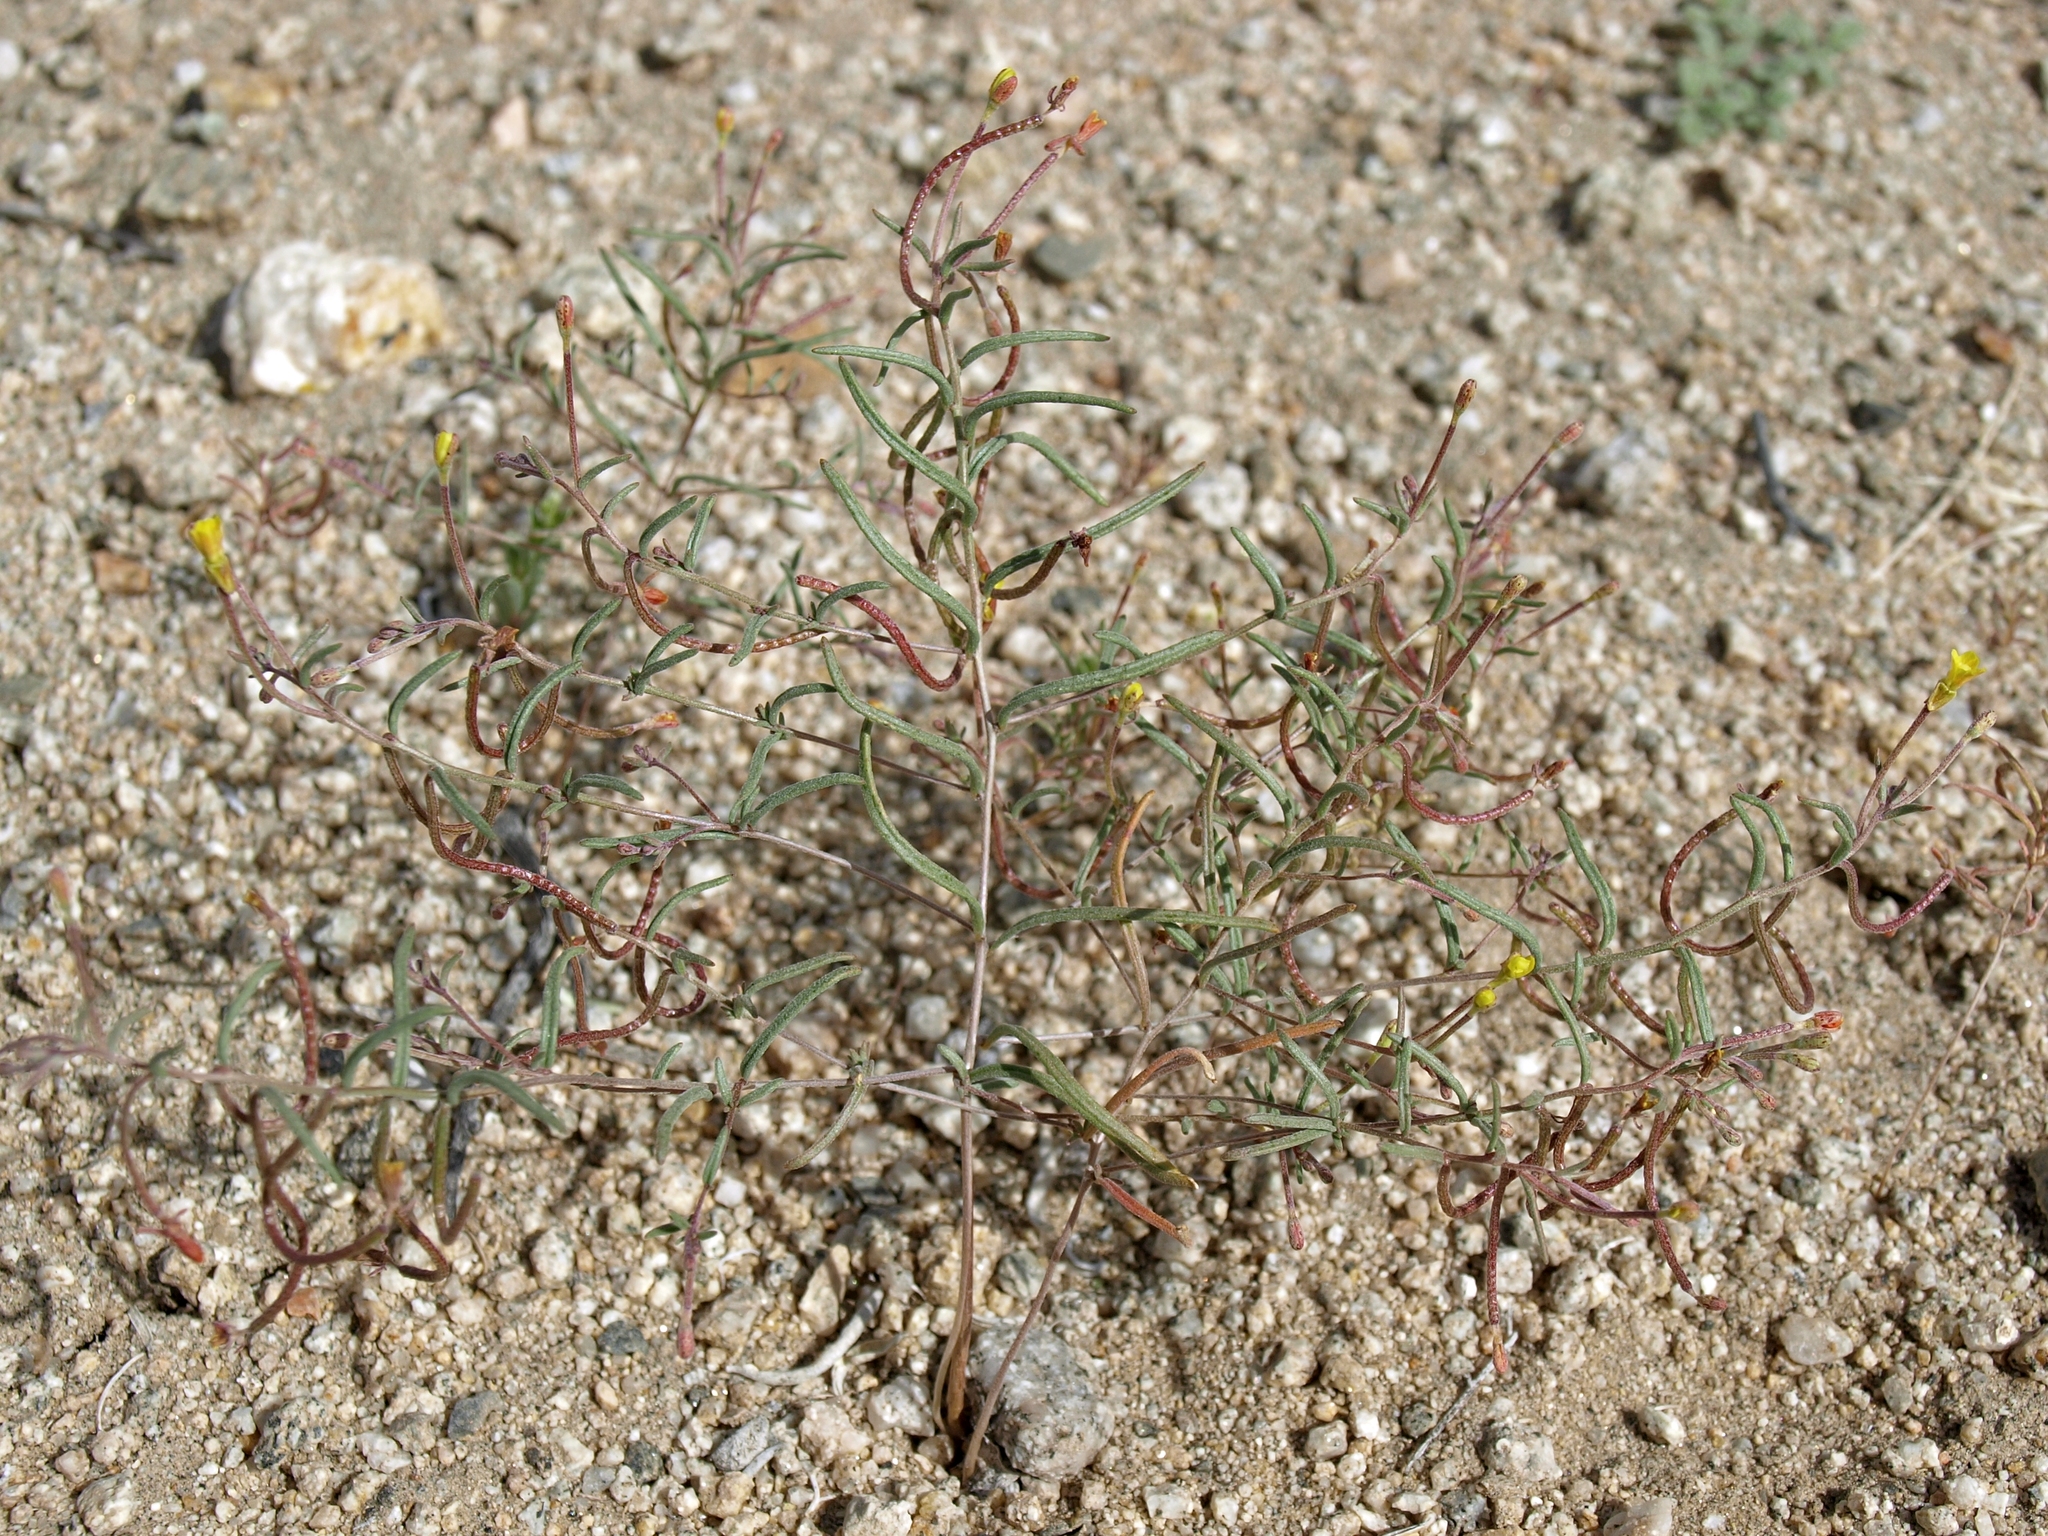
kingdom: Plantae
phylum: Tracheophyta
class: Magnoliopsida
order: Myrtales
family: Onagraceae
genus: Camissonia
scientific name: Camissonia parvula
